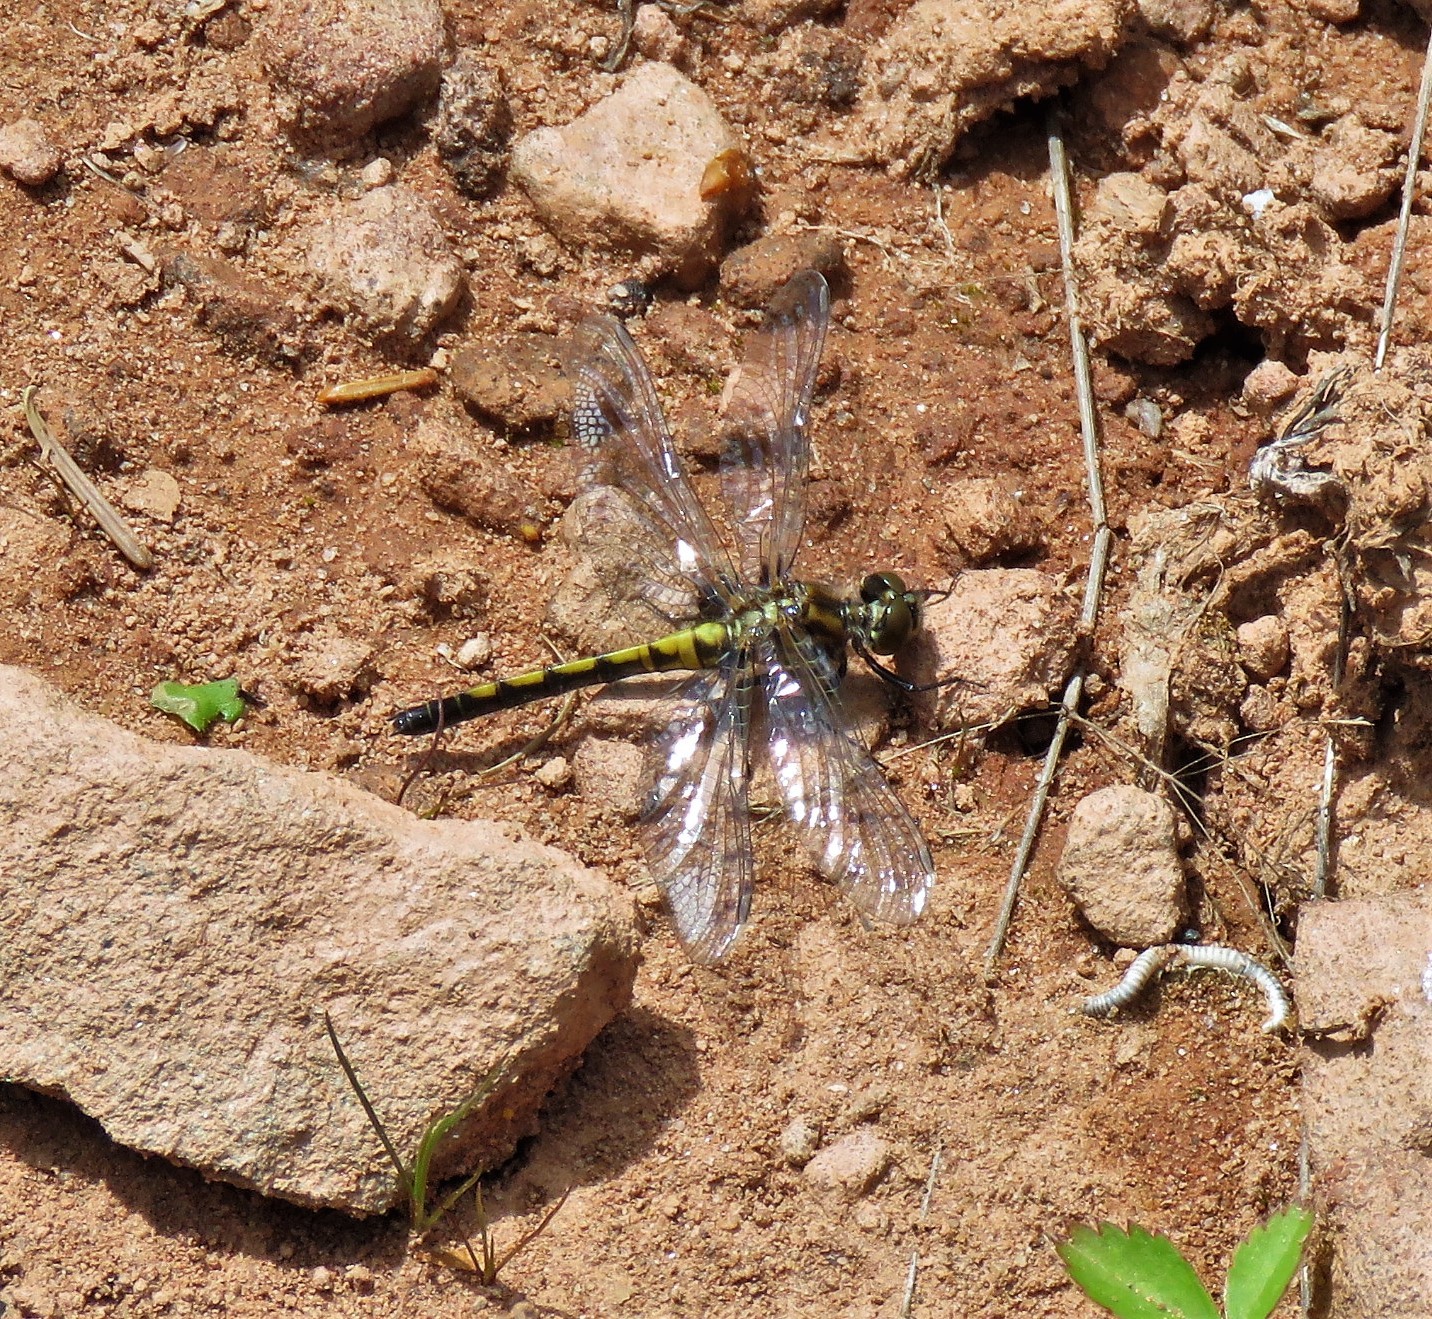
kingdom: Animalia
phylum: Arthropoda
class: Insecta
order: Odonata
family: Libellulidae
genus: Leucorrhinia
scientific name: Leucorrhinia hudsonica
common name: Hudsonian whiteface
